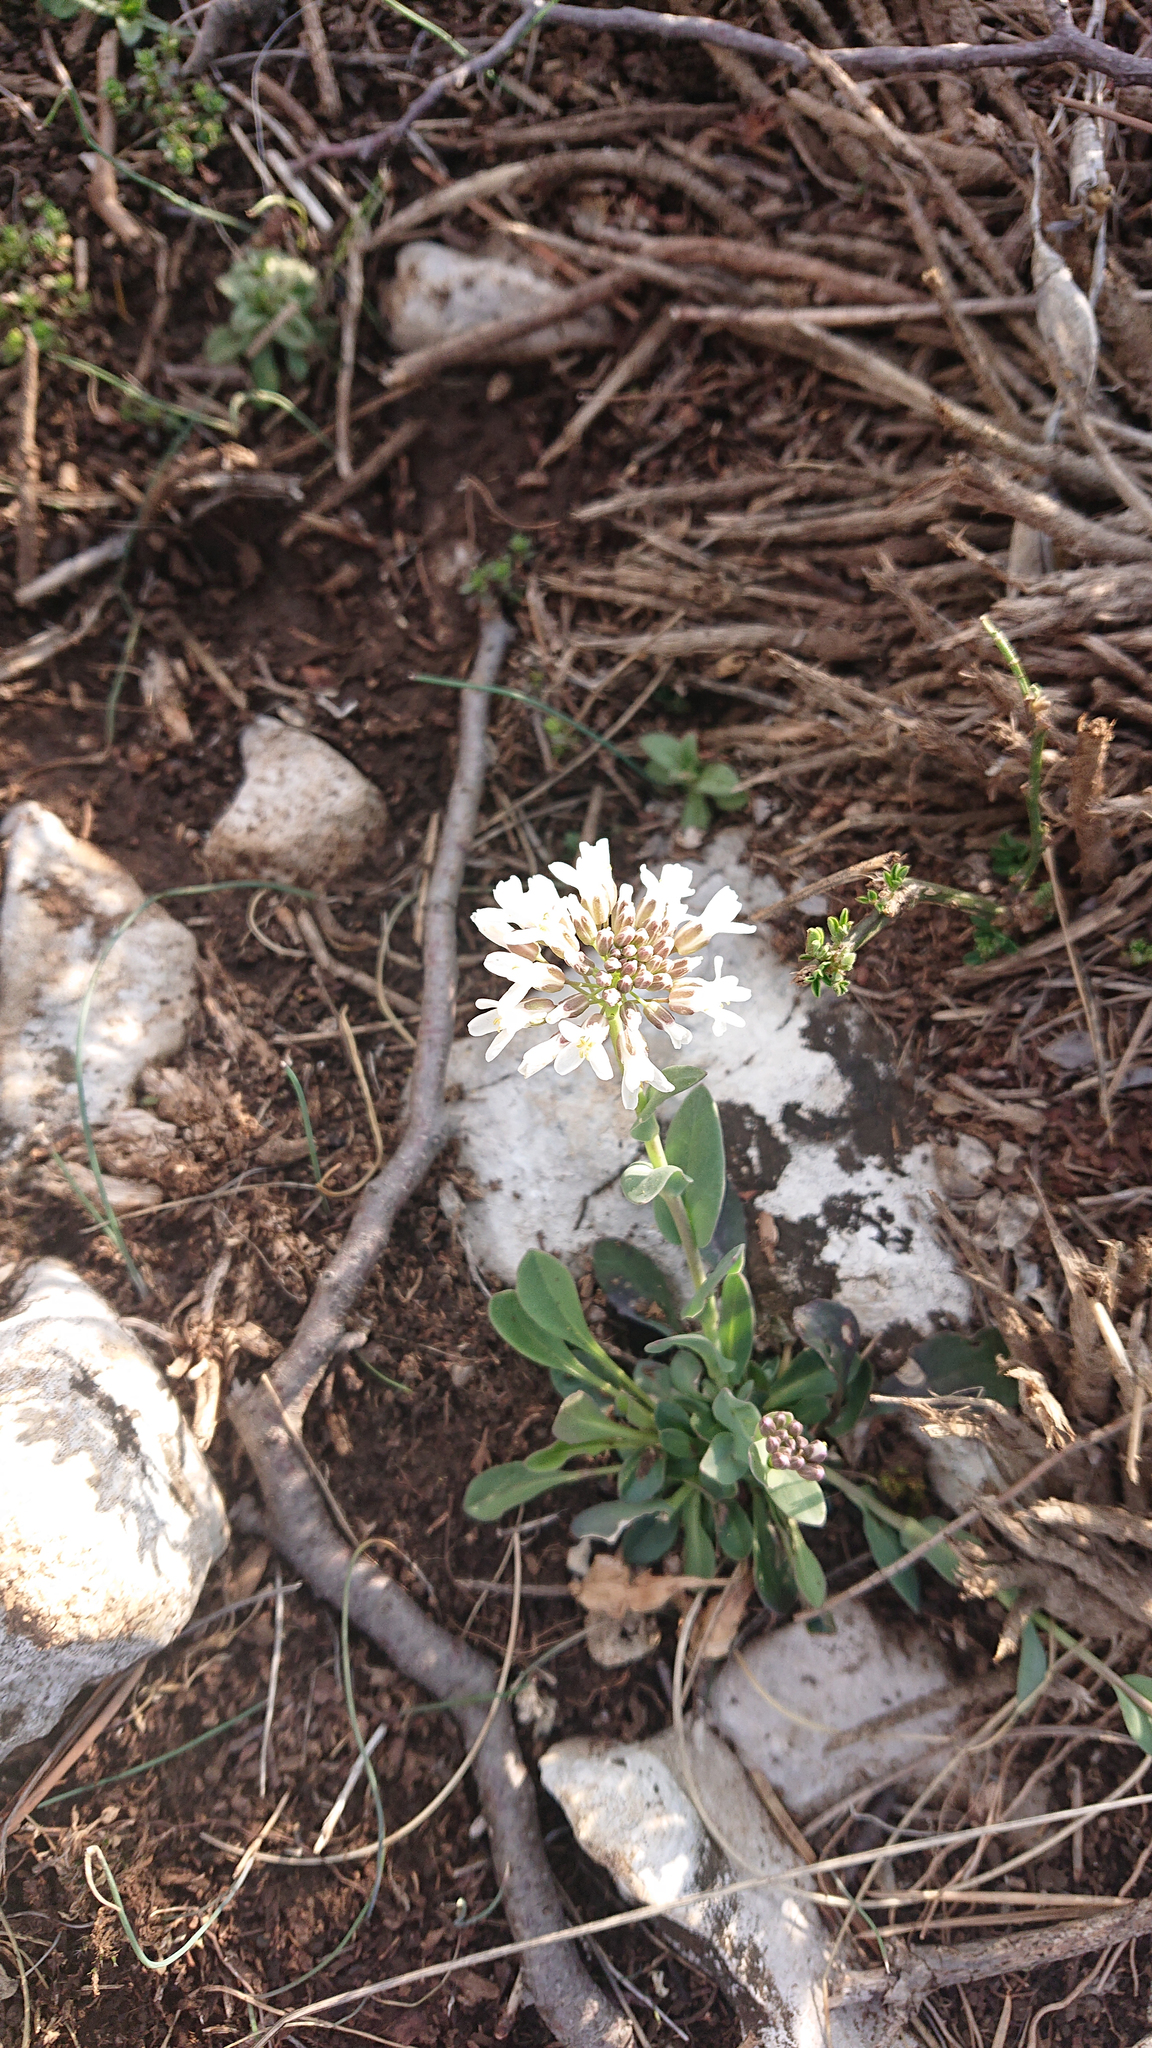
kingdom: Plantae
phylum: Tracheophyta
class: Magnoliopsida
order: Brassicales
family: Brassicaceae
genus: Noccaea
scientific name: Noccaea praecox
